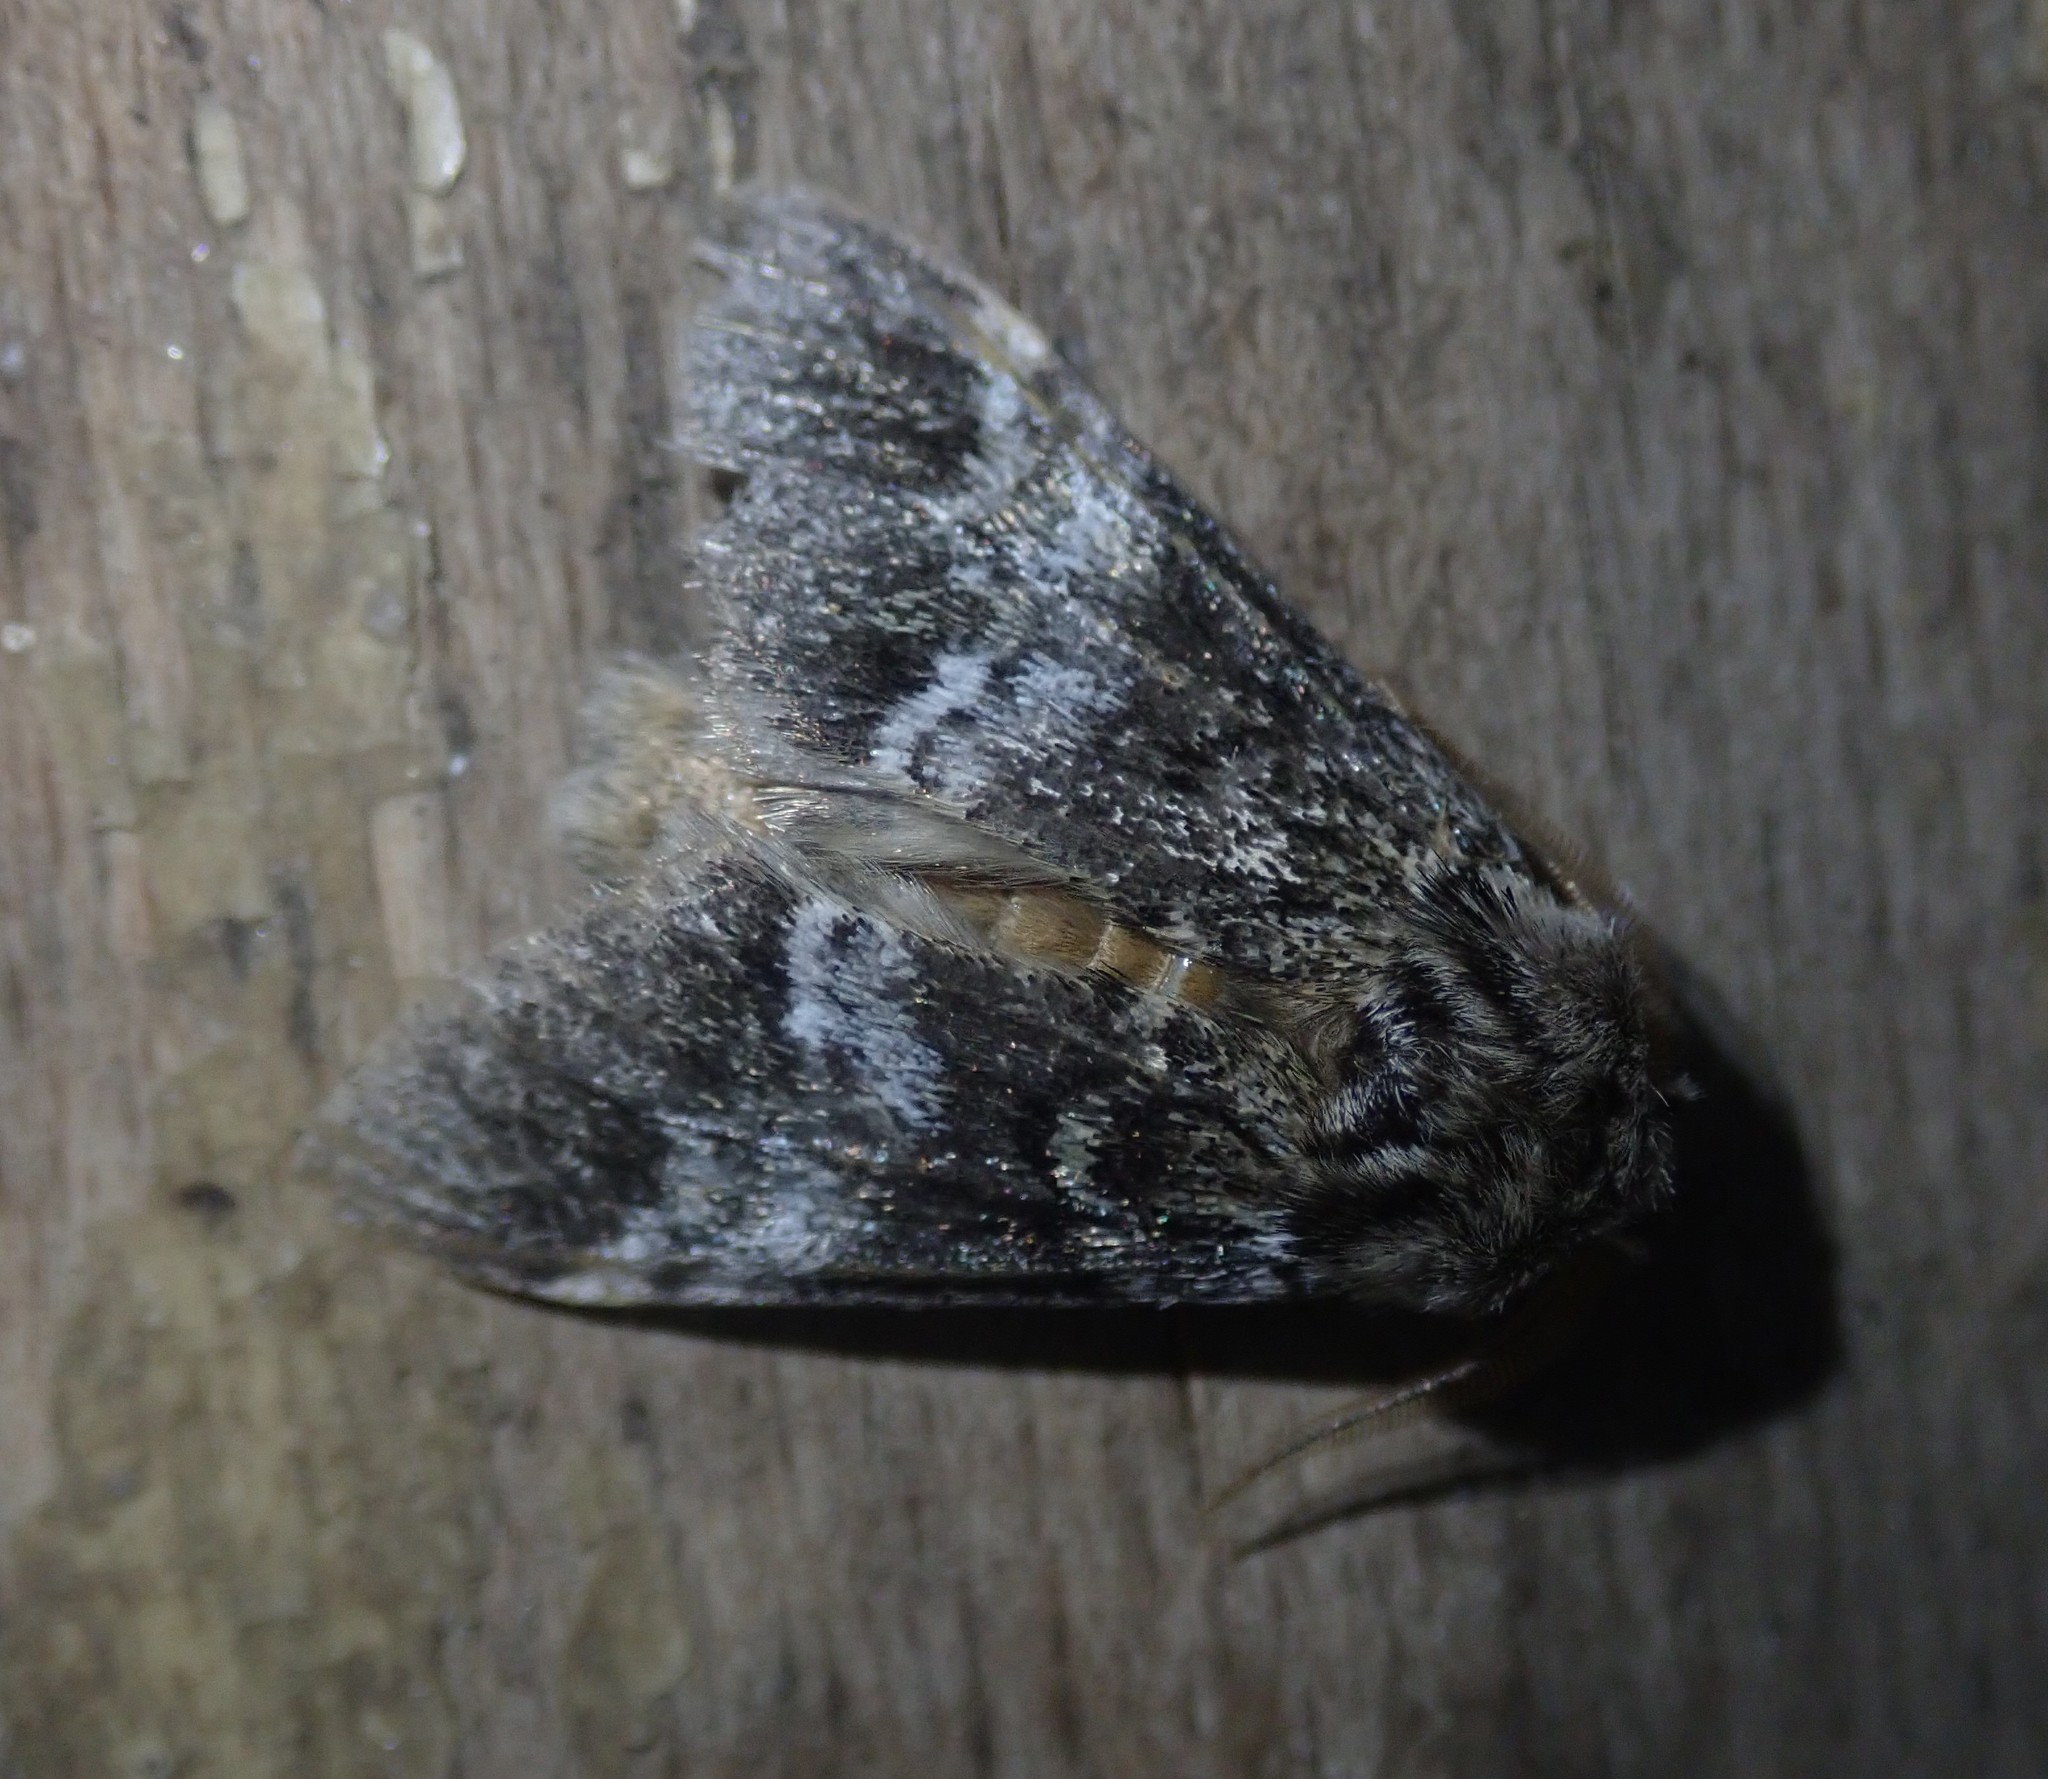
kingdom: Animalia
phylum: Arthropoda
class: Insecta
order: Lepidoptera
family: Notodontidae
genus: Drymonia
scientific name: Drymonia dodonaea
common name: Marbled brown
